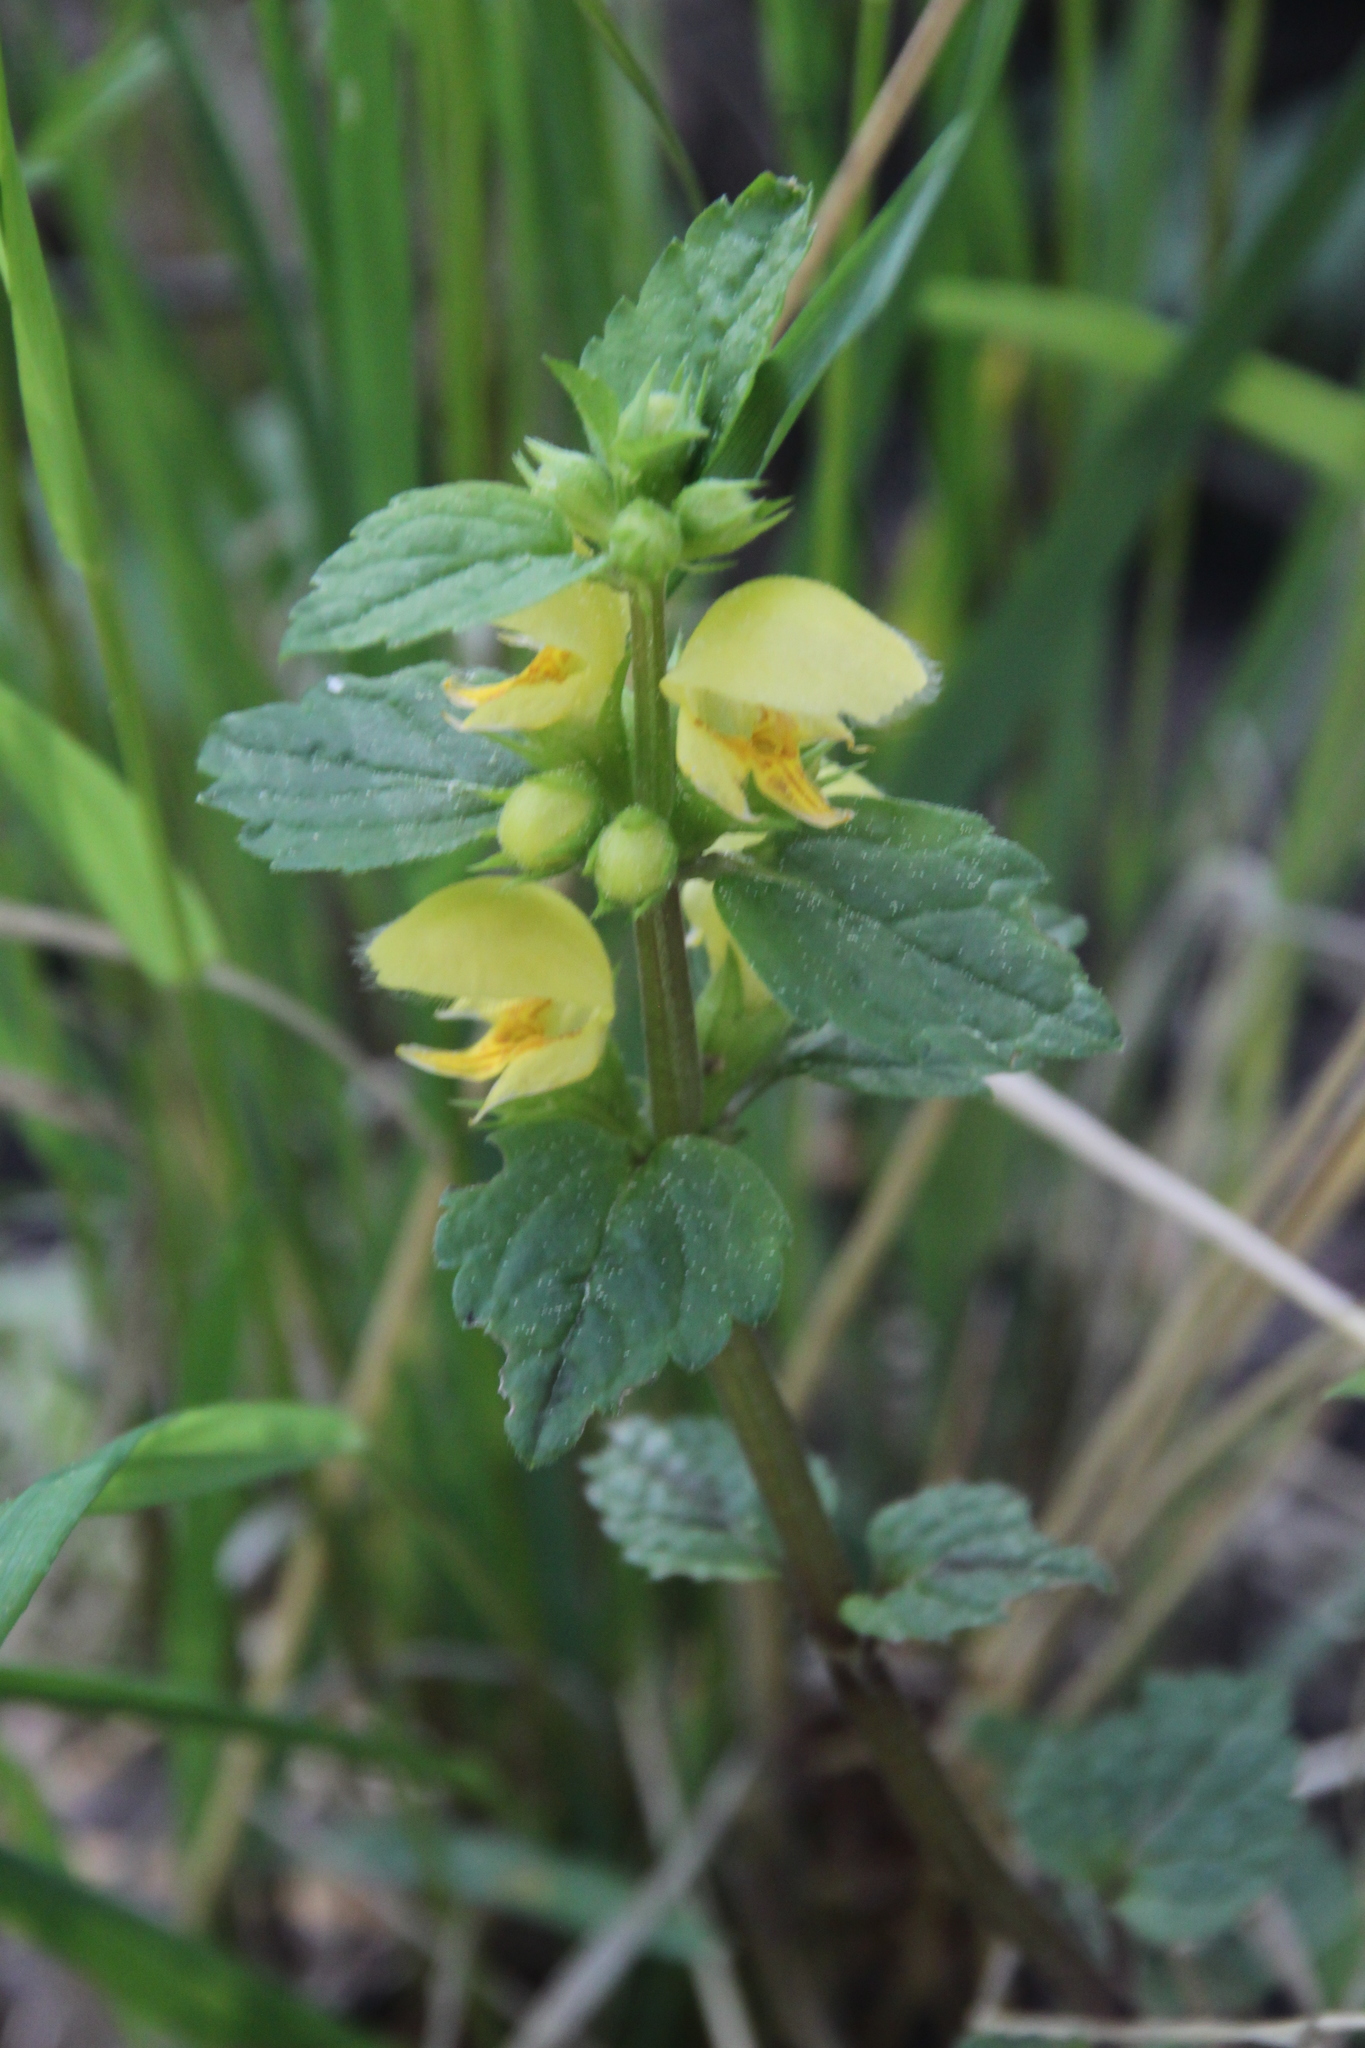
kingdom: Plantae
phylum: Tracheophyta
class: Magnoliopsida
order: Lamiales
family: Lamiaceae
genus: Lamium
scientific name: Lamium galeobdolon
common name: Yellow archangel
